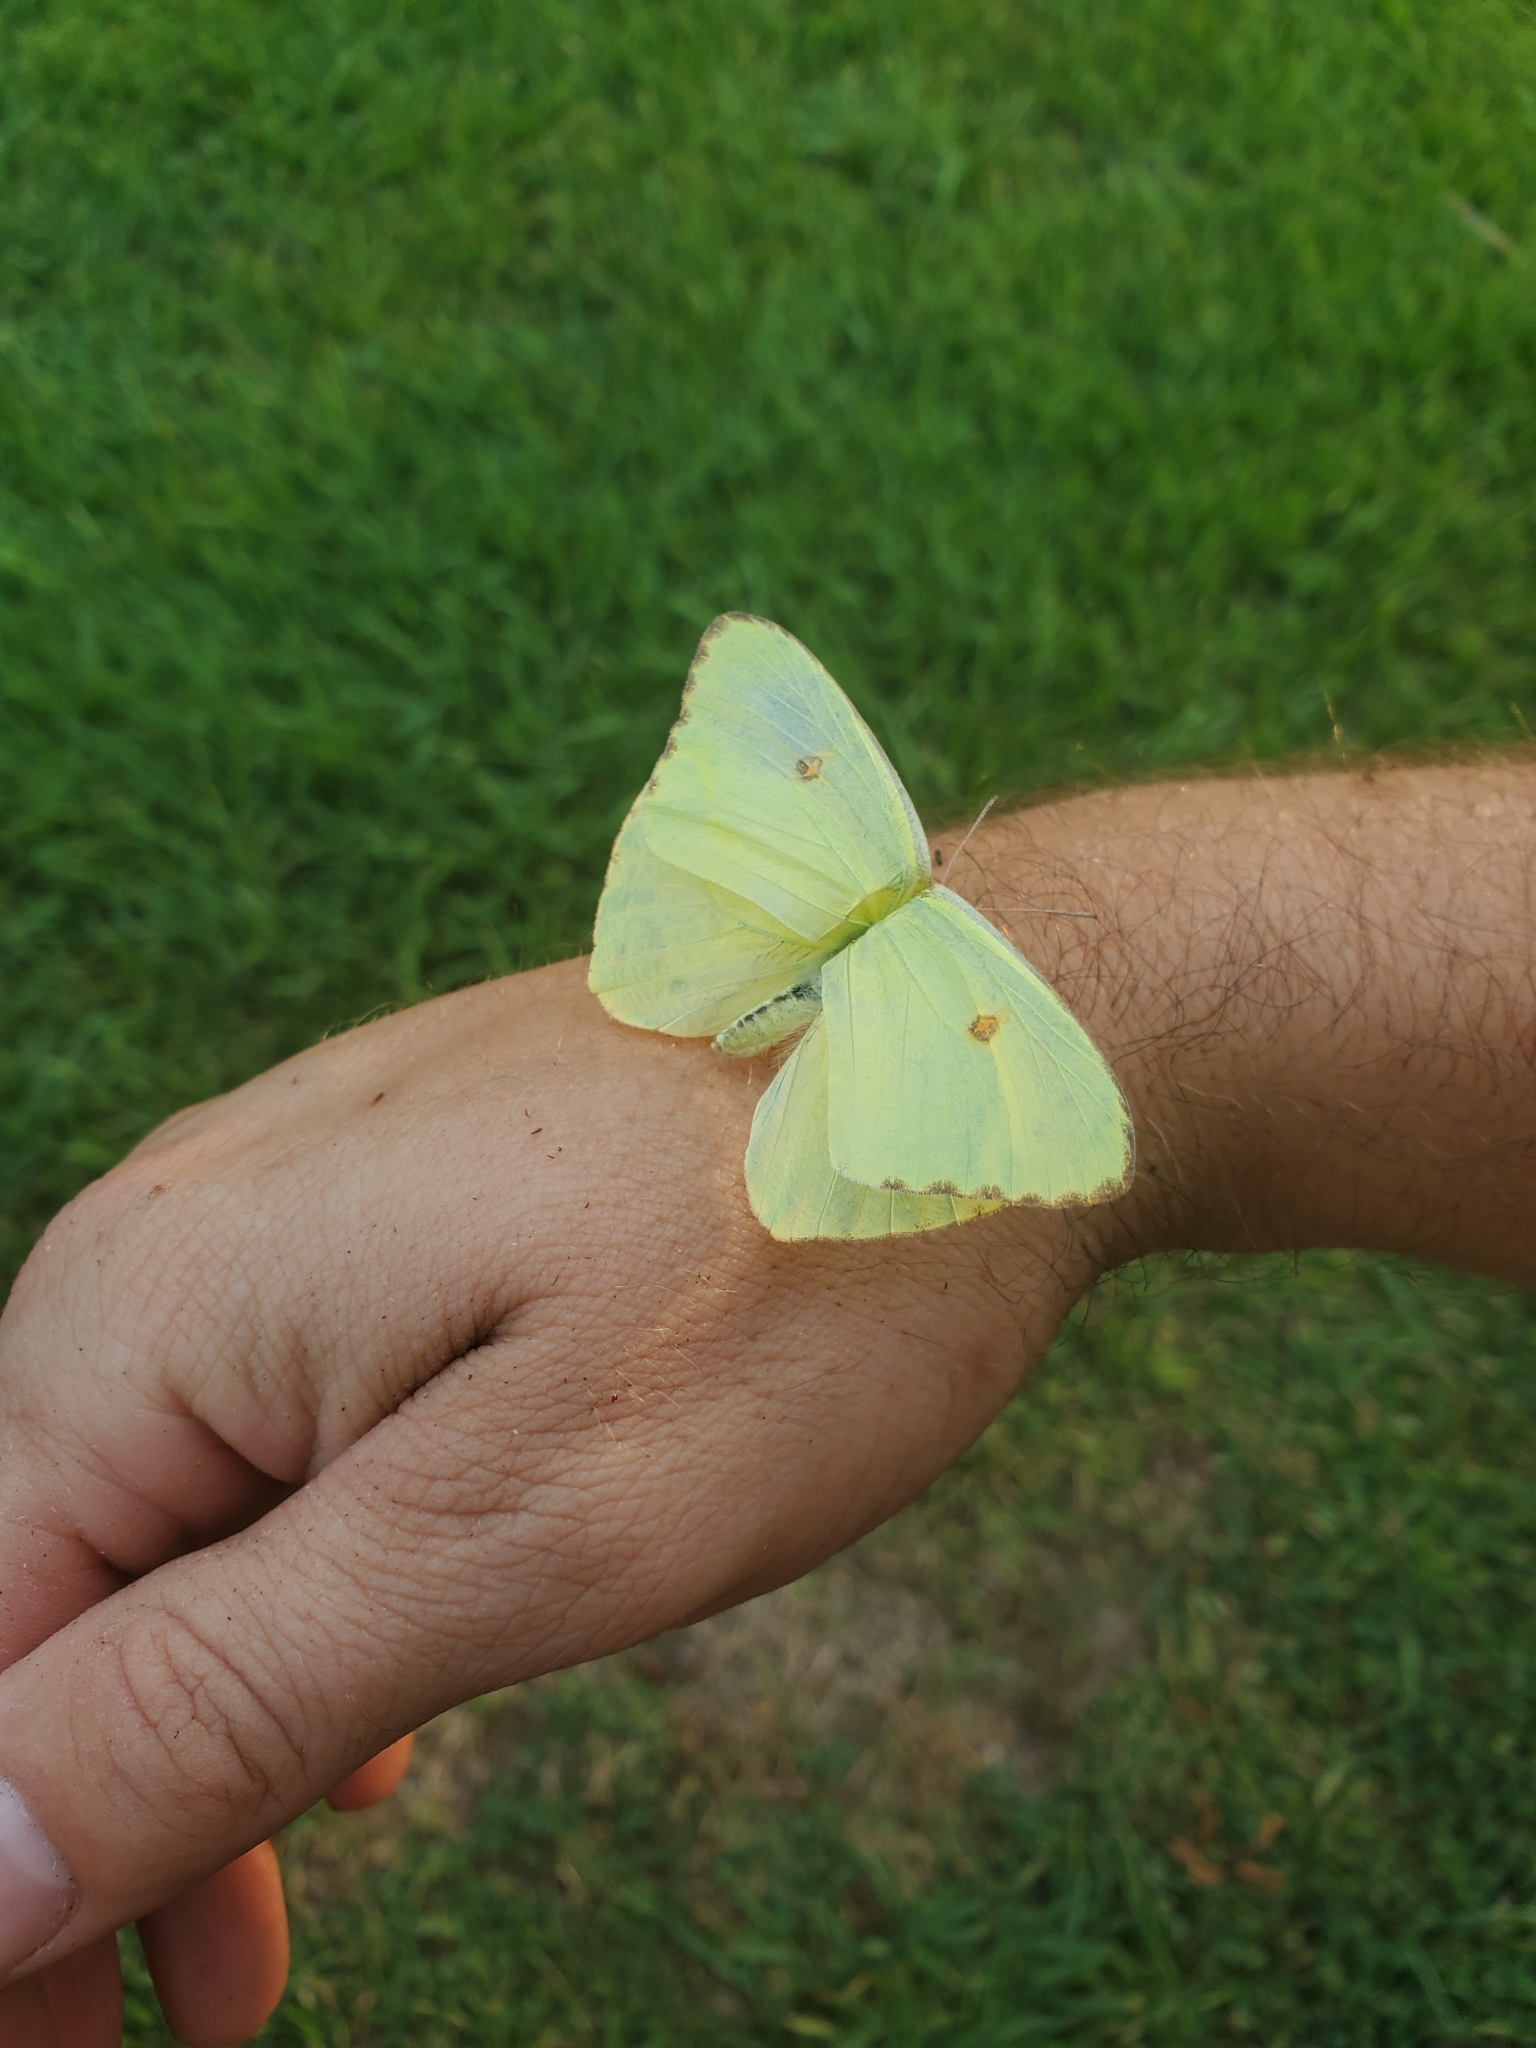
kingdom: Animalia
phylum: Arthropoda
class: Insecta
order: Lepidoptera
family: Pieridae
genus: Phoebis
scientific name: Phoebis sennae
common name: Cloudless sulphur
